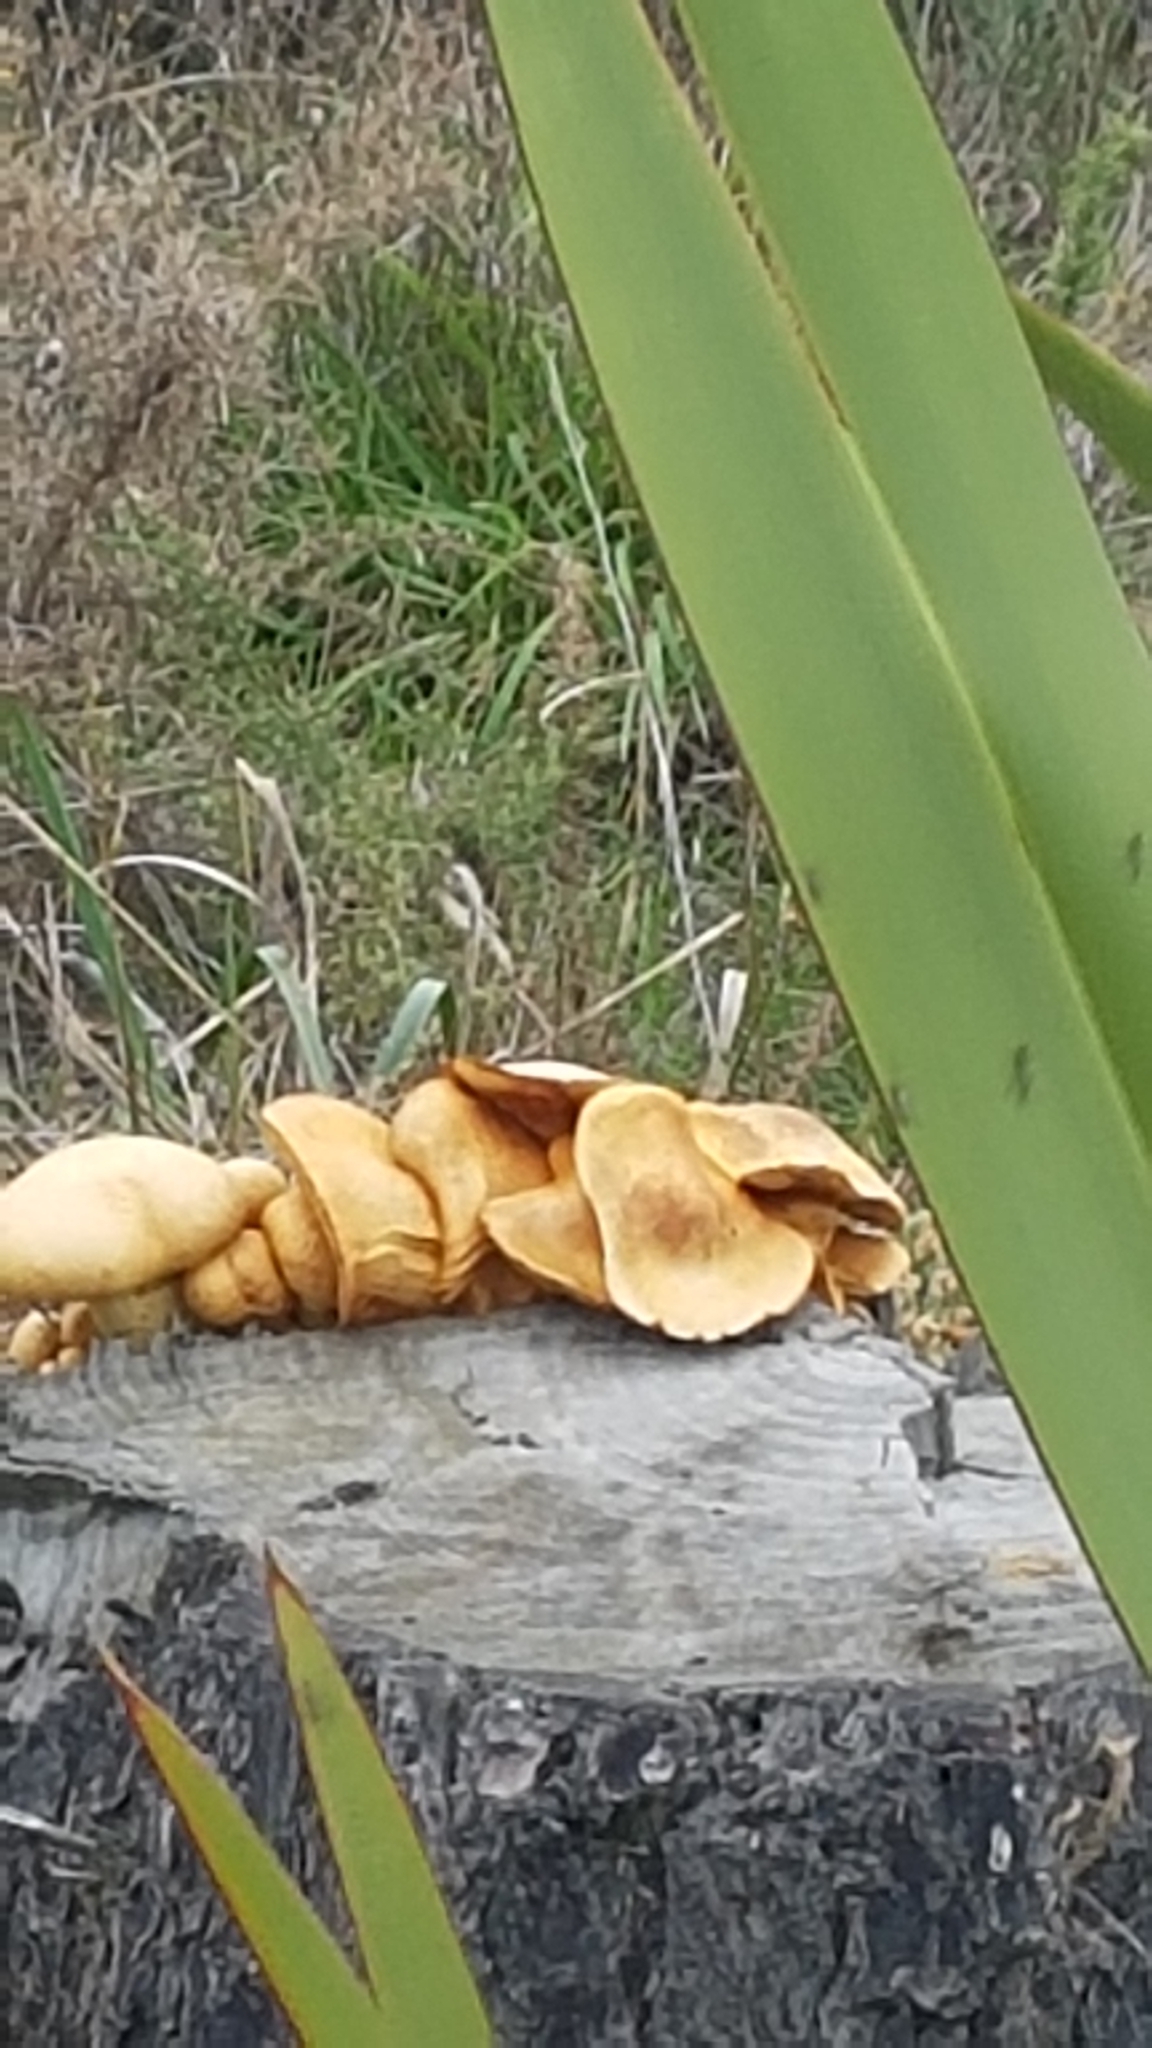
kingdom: Fungi
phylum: Basidiomycota
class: Agaricomycetes
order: Agaricales
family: Hymenogastraceae
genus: Gymnopilus
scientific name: Gymnopilus junonius
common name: Spectacular rustgill
